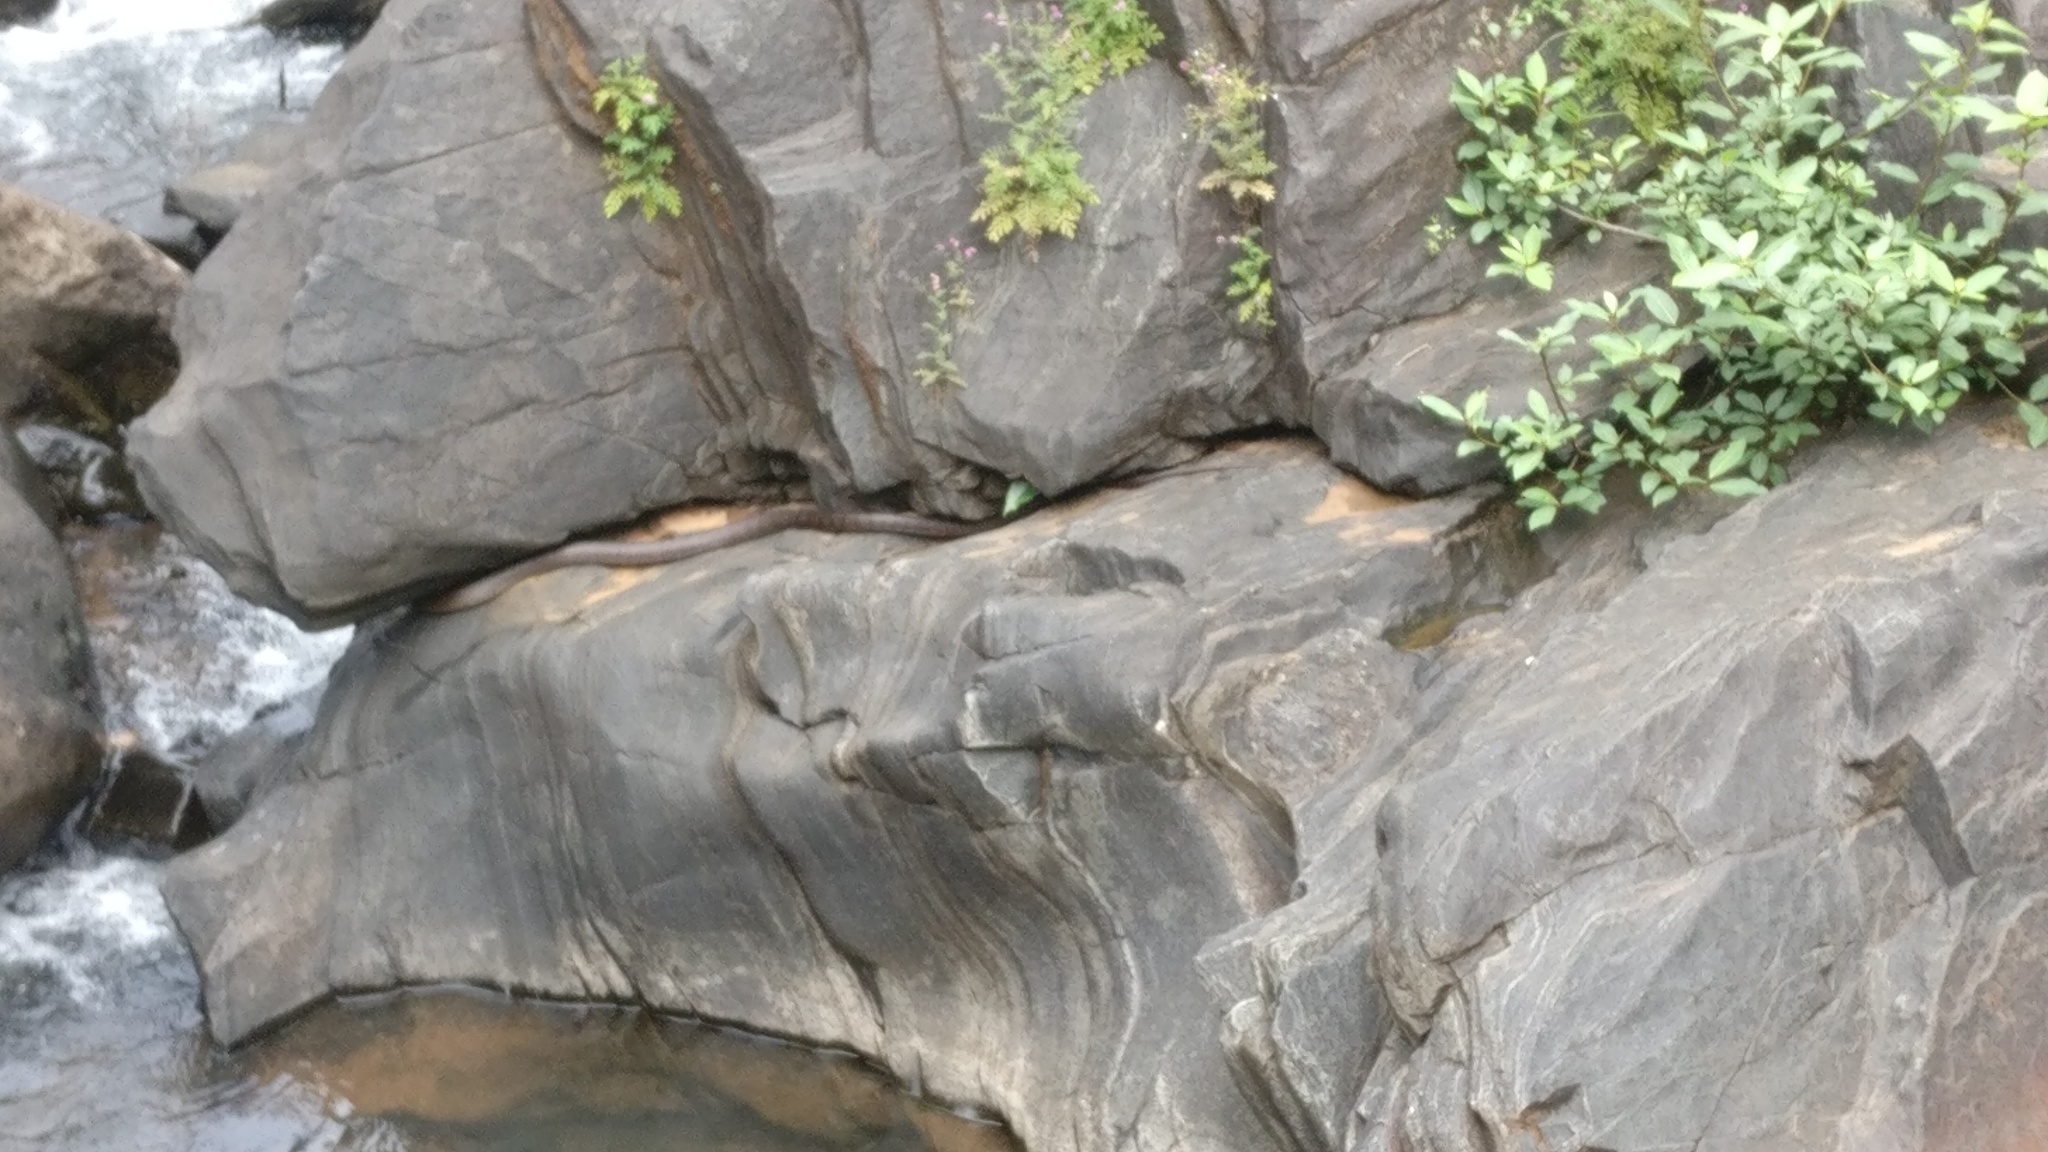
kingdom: Animalia
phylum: Chordata
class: Squamata
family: Colubridae
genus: Ptyas
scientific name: Ptyas mucosa
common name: Oriental ratsnake
